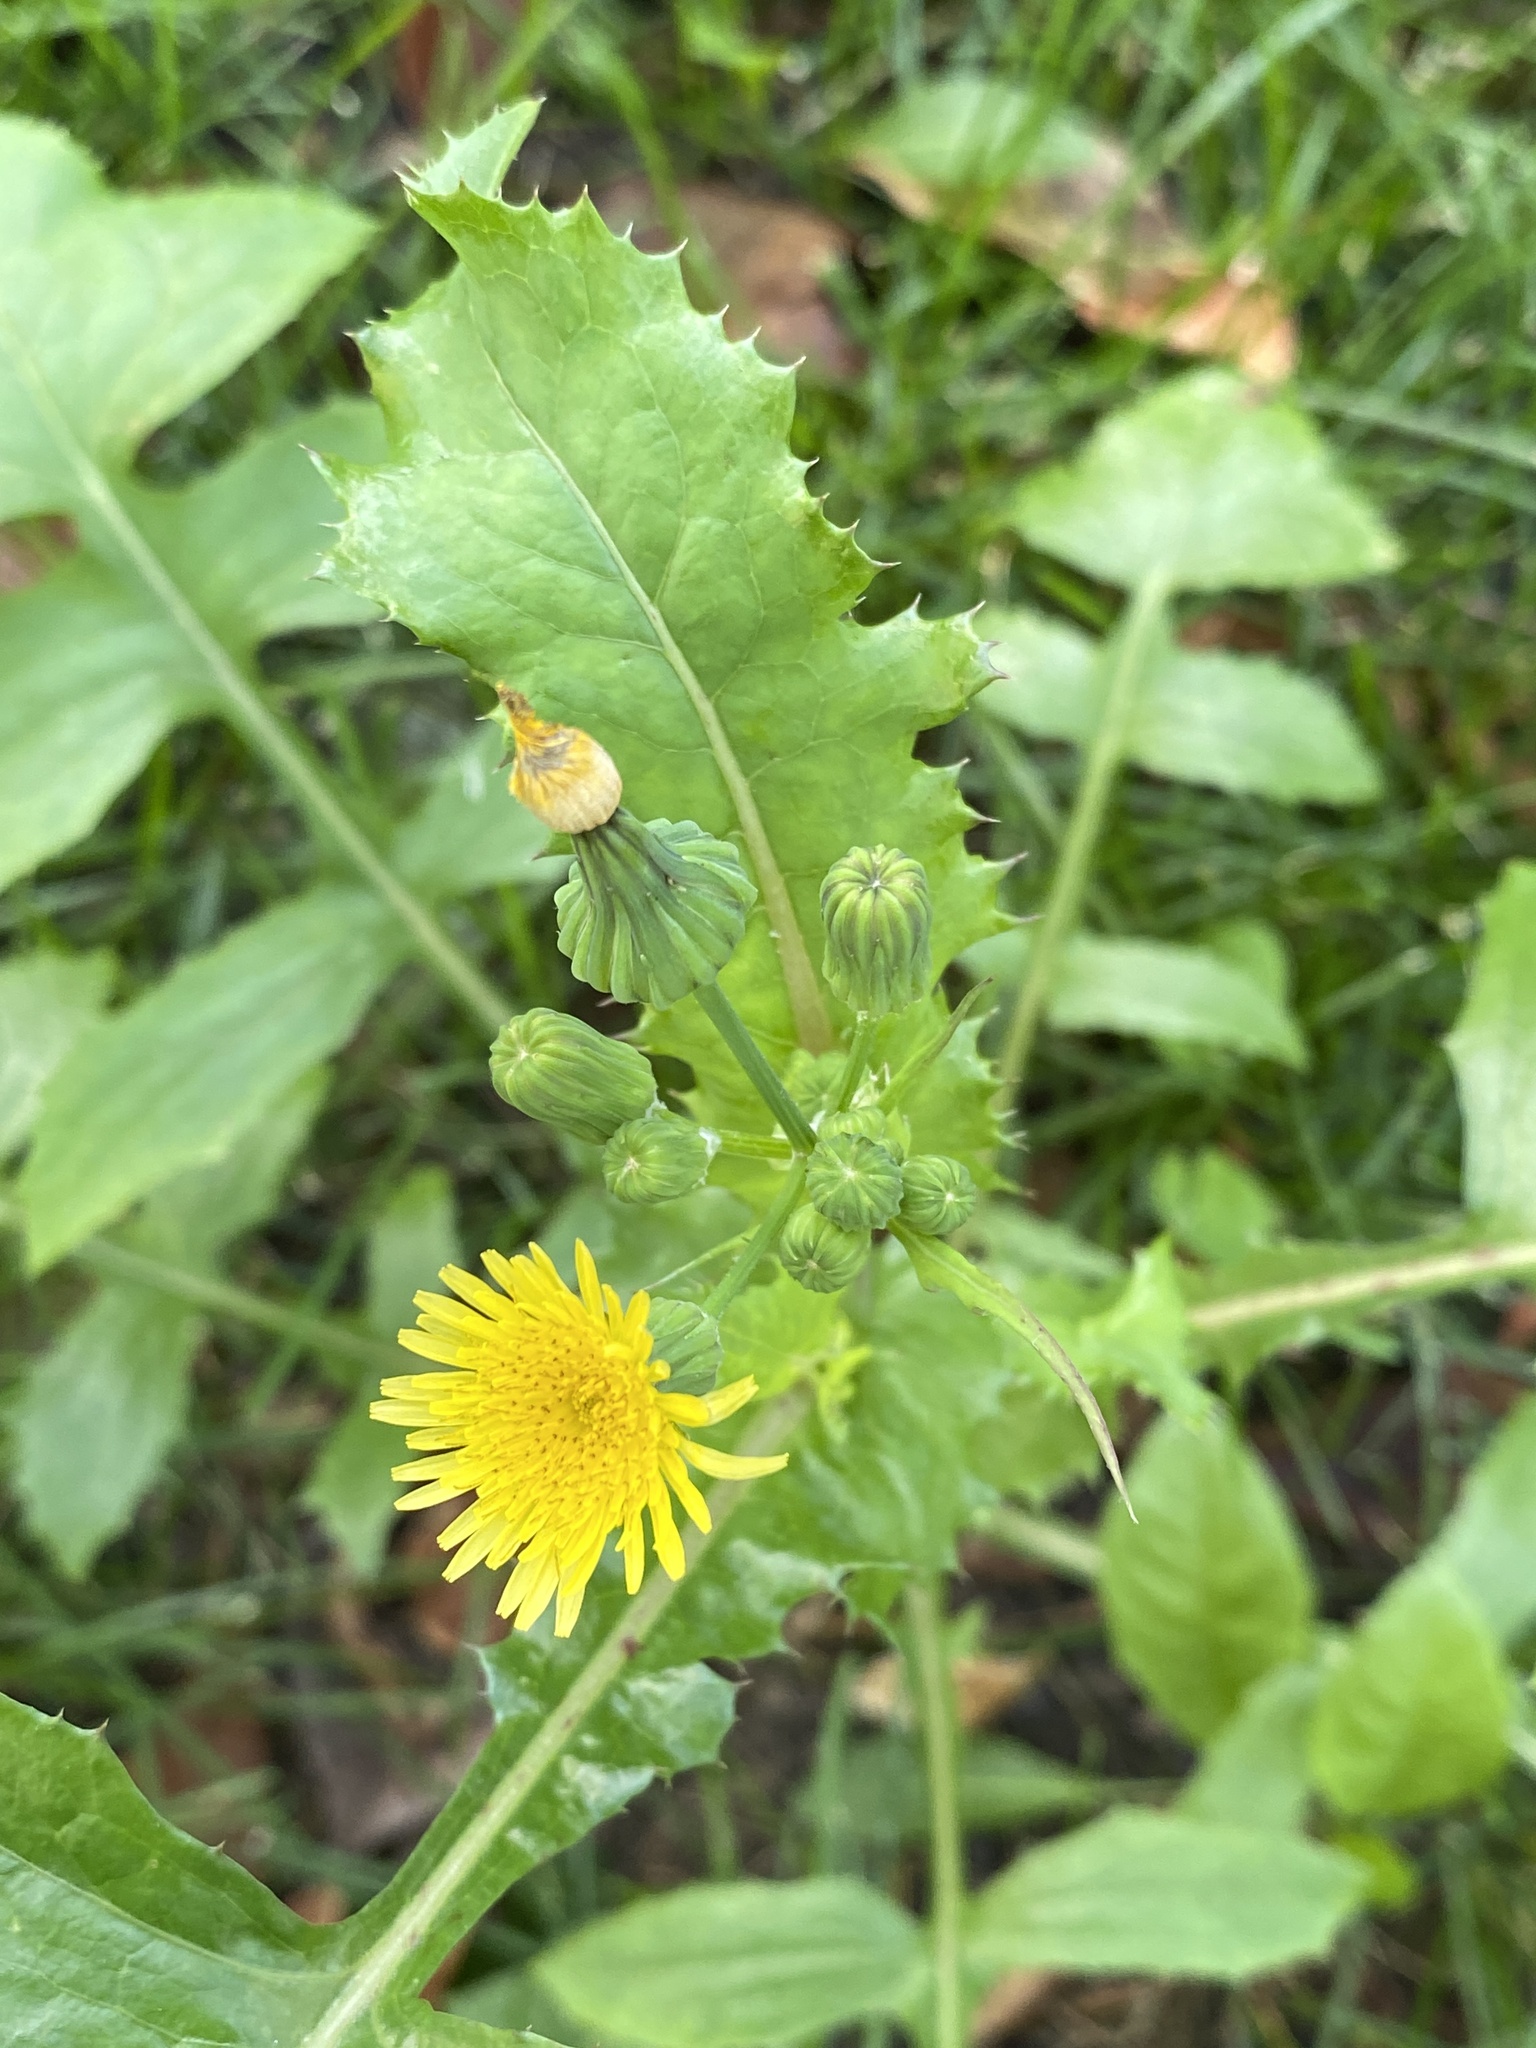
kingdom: Plantae
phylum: Tracheophyta
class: Magnoliopsida
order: Asterales
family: Asteraceae
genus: Sonchus
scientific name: Sonchus oleraceus
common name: Common sowthistle
